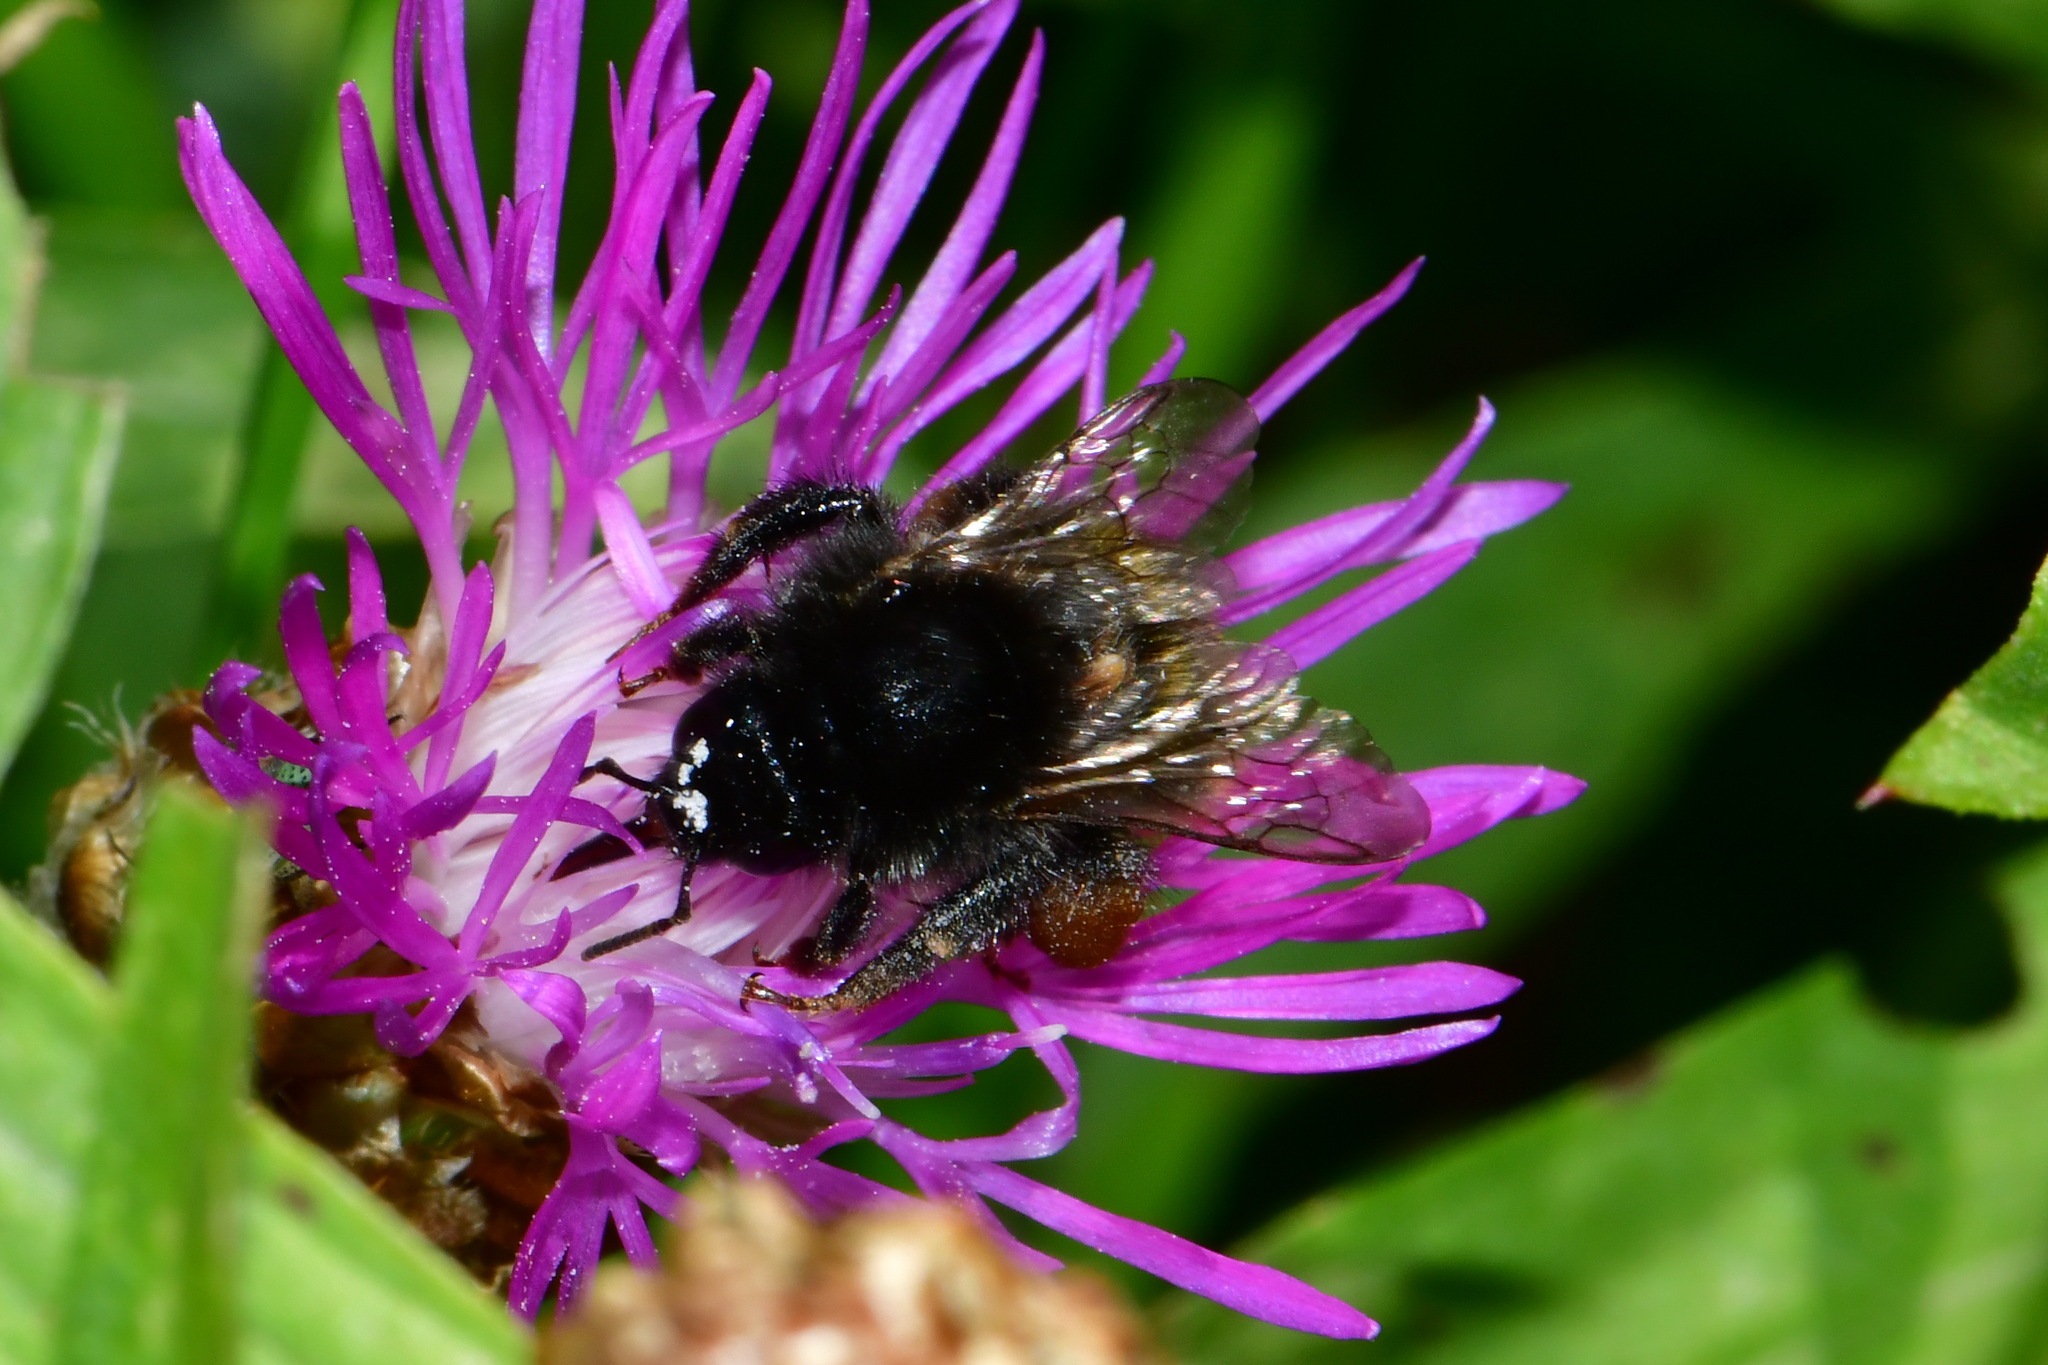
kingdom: Animalia
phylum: Arthropoda
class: Insecta
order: Hymenoptera
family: Apidae
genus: Bombus
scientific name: Bombus ruderarius
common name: Red-shanked carder-bee
